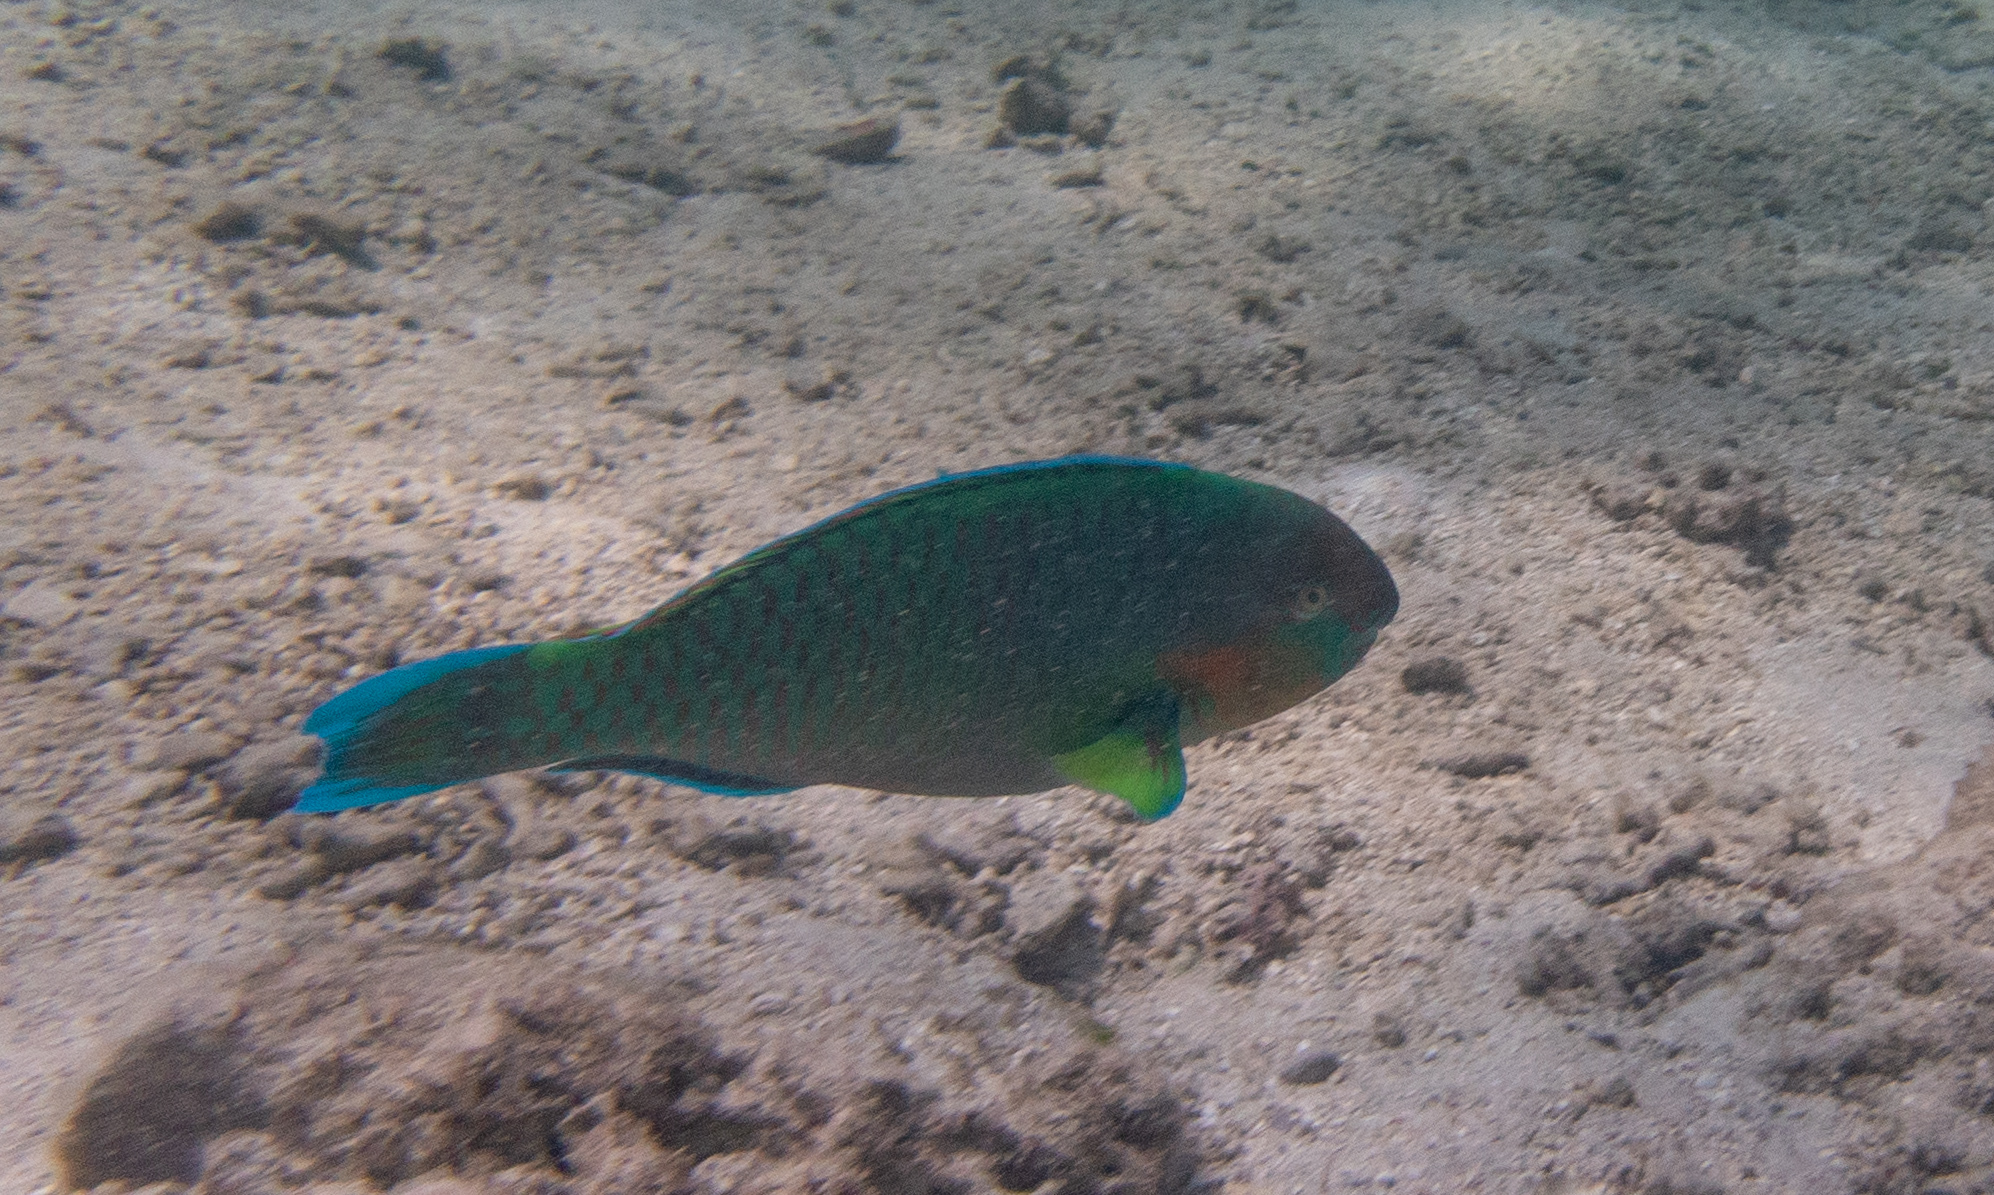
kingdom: Animalia
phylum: Chordata
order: Perciformes
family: Scaridae
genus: Scarus
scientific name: Scarus rivulatus
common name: Surf parrotfish
